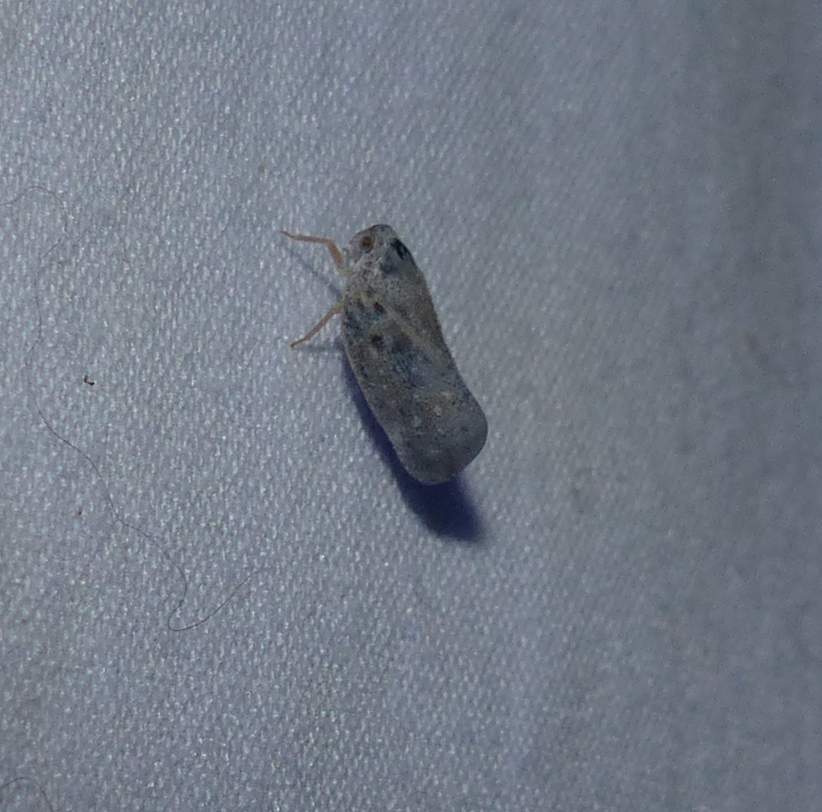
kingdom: Animalia
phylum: Arthropoda
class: Insecta
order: Hemiptera
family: Flatidae
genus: Metcalfa
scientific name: Metcalfa pruinosa
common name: Citrus flatid planthopper
